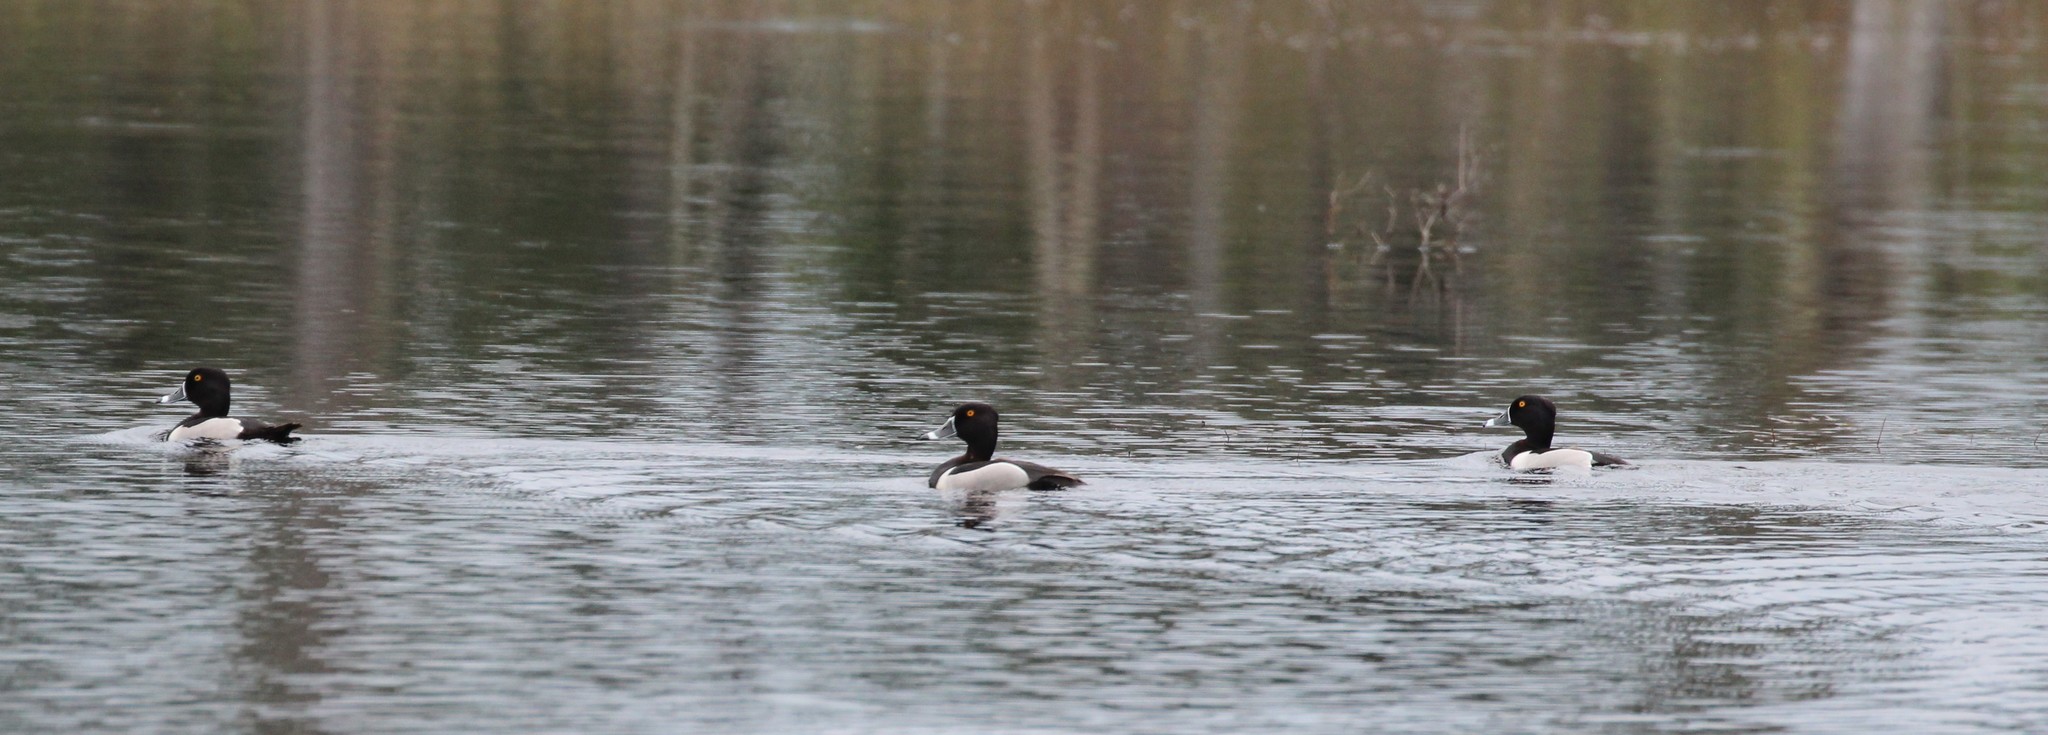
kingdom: Animalia
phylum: Chordata
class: Aves
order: Anseriformes
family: Anatidae
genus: Aythya
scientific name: Aythya collaris
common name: Ring-necked duck
